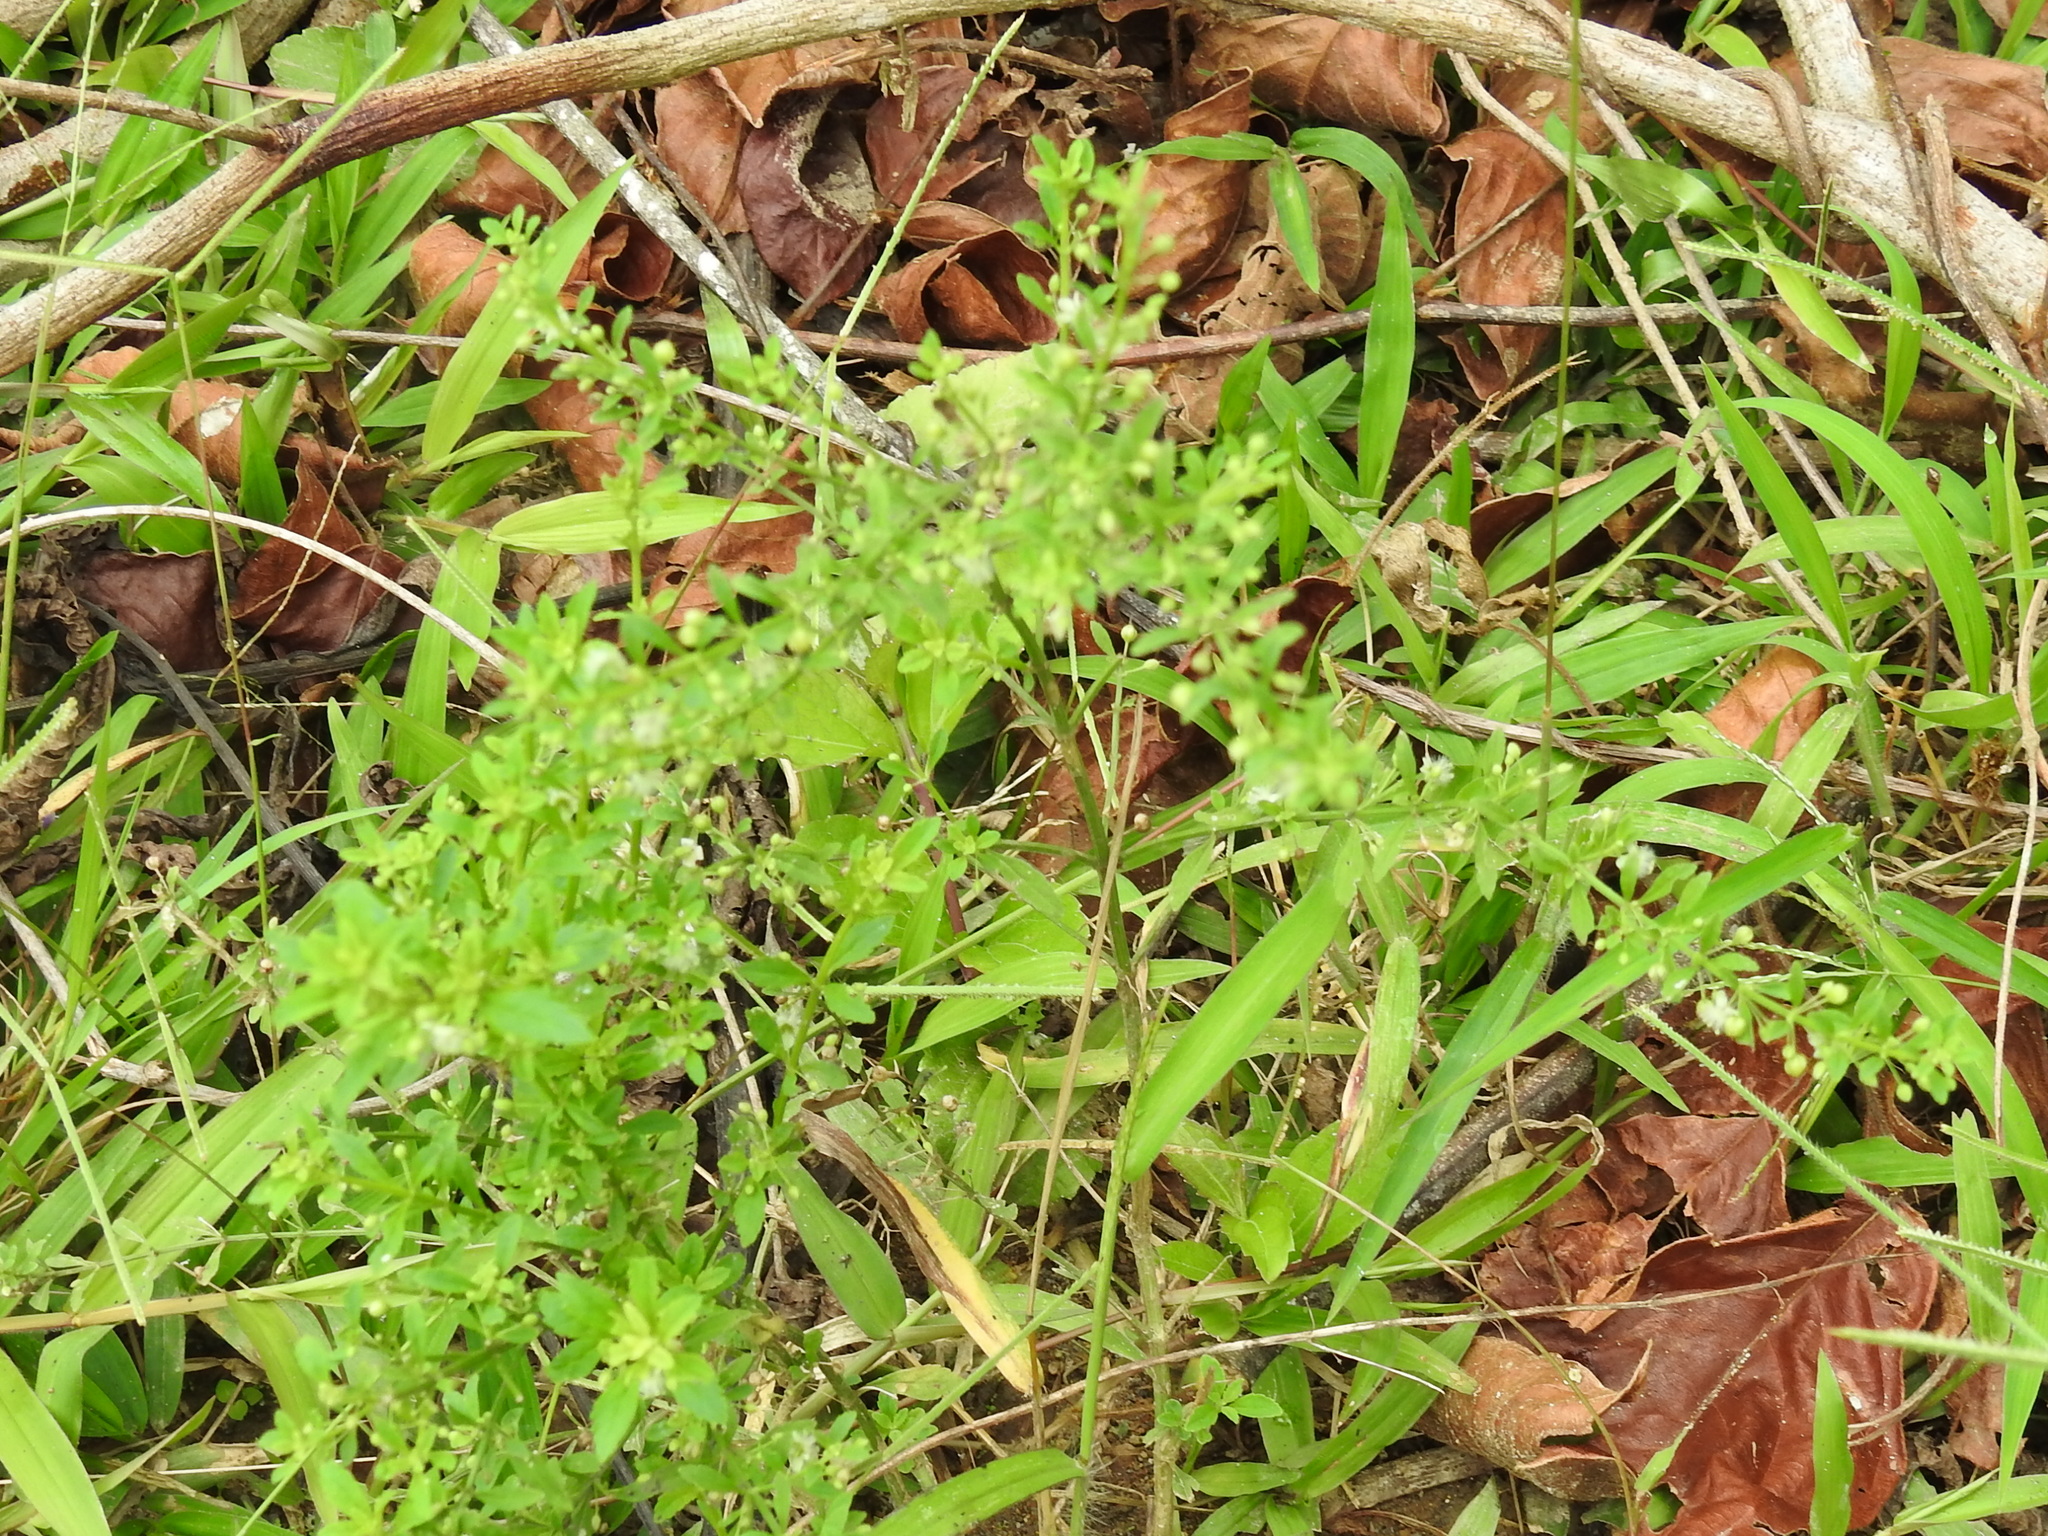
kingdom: Plantae
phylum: Tracheophyta
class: Magnoliopsida
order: Lamiales
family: Plantaginaceae
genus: Scoparia
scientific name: Scoparia dulcis
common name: Scoparia-weed
